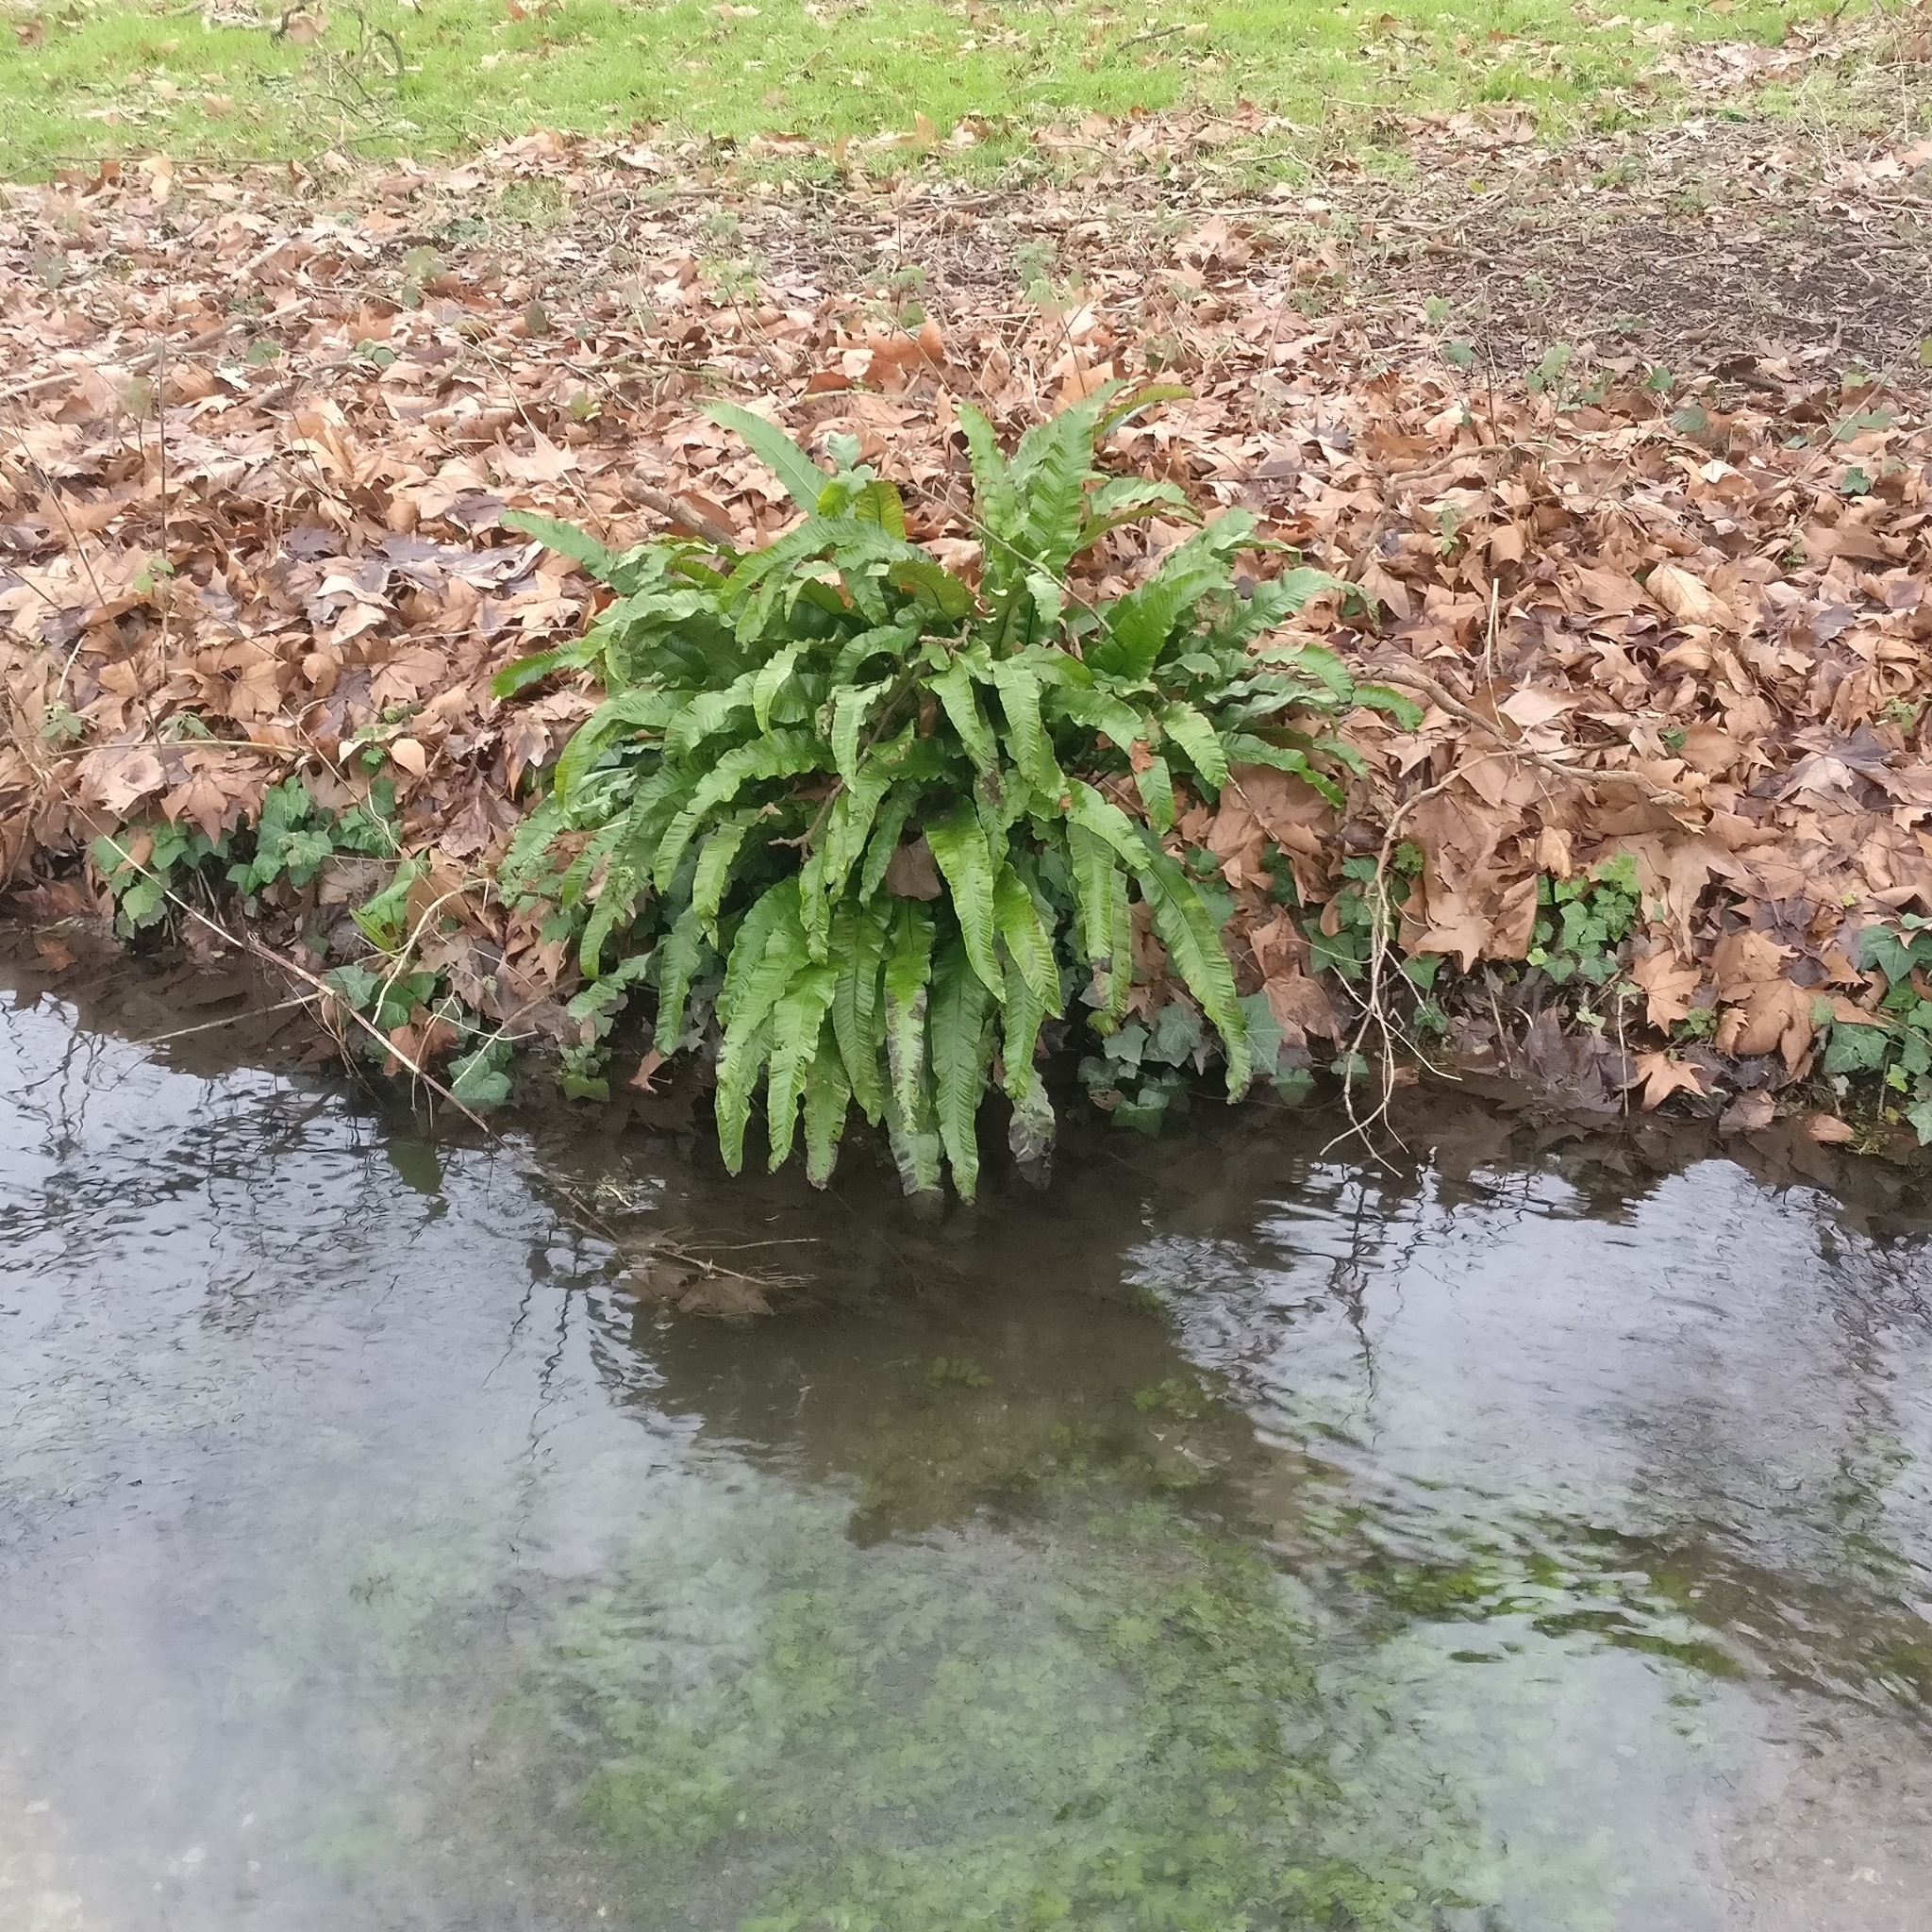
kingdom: Plantae
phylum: Tracheophyta
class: Polypodiopsida
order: Polypodiales
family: Aspleniaceae
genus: Asplenium
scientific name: Asplenium scolopendrium
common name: Hart's-tongue fern
